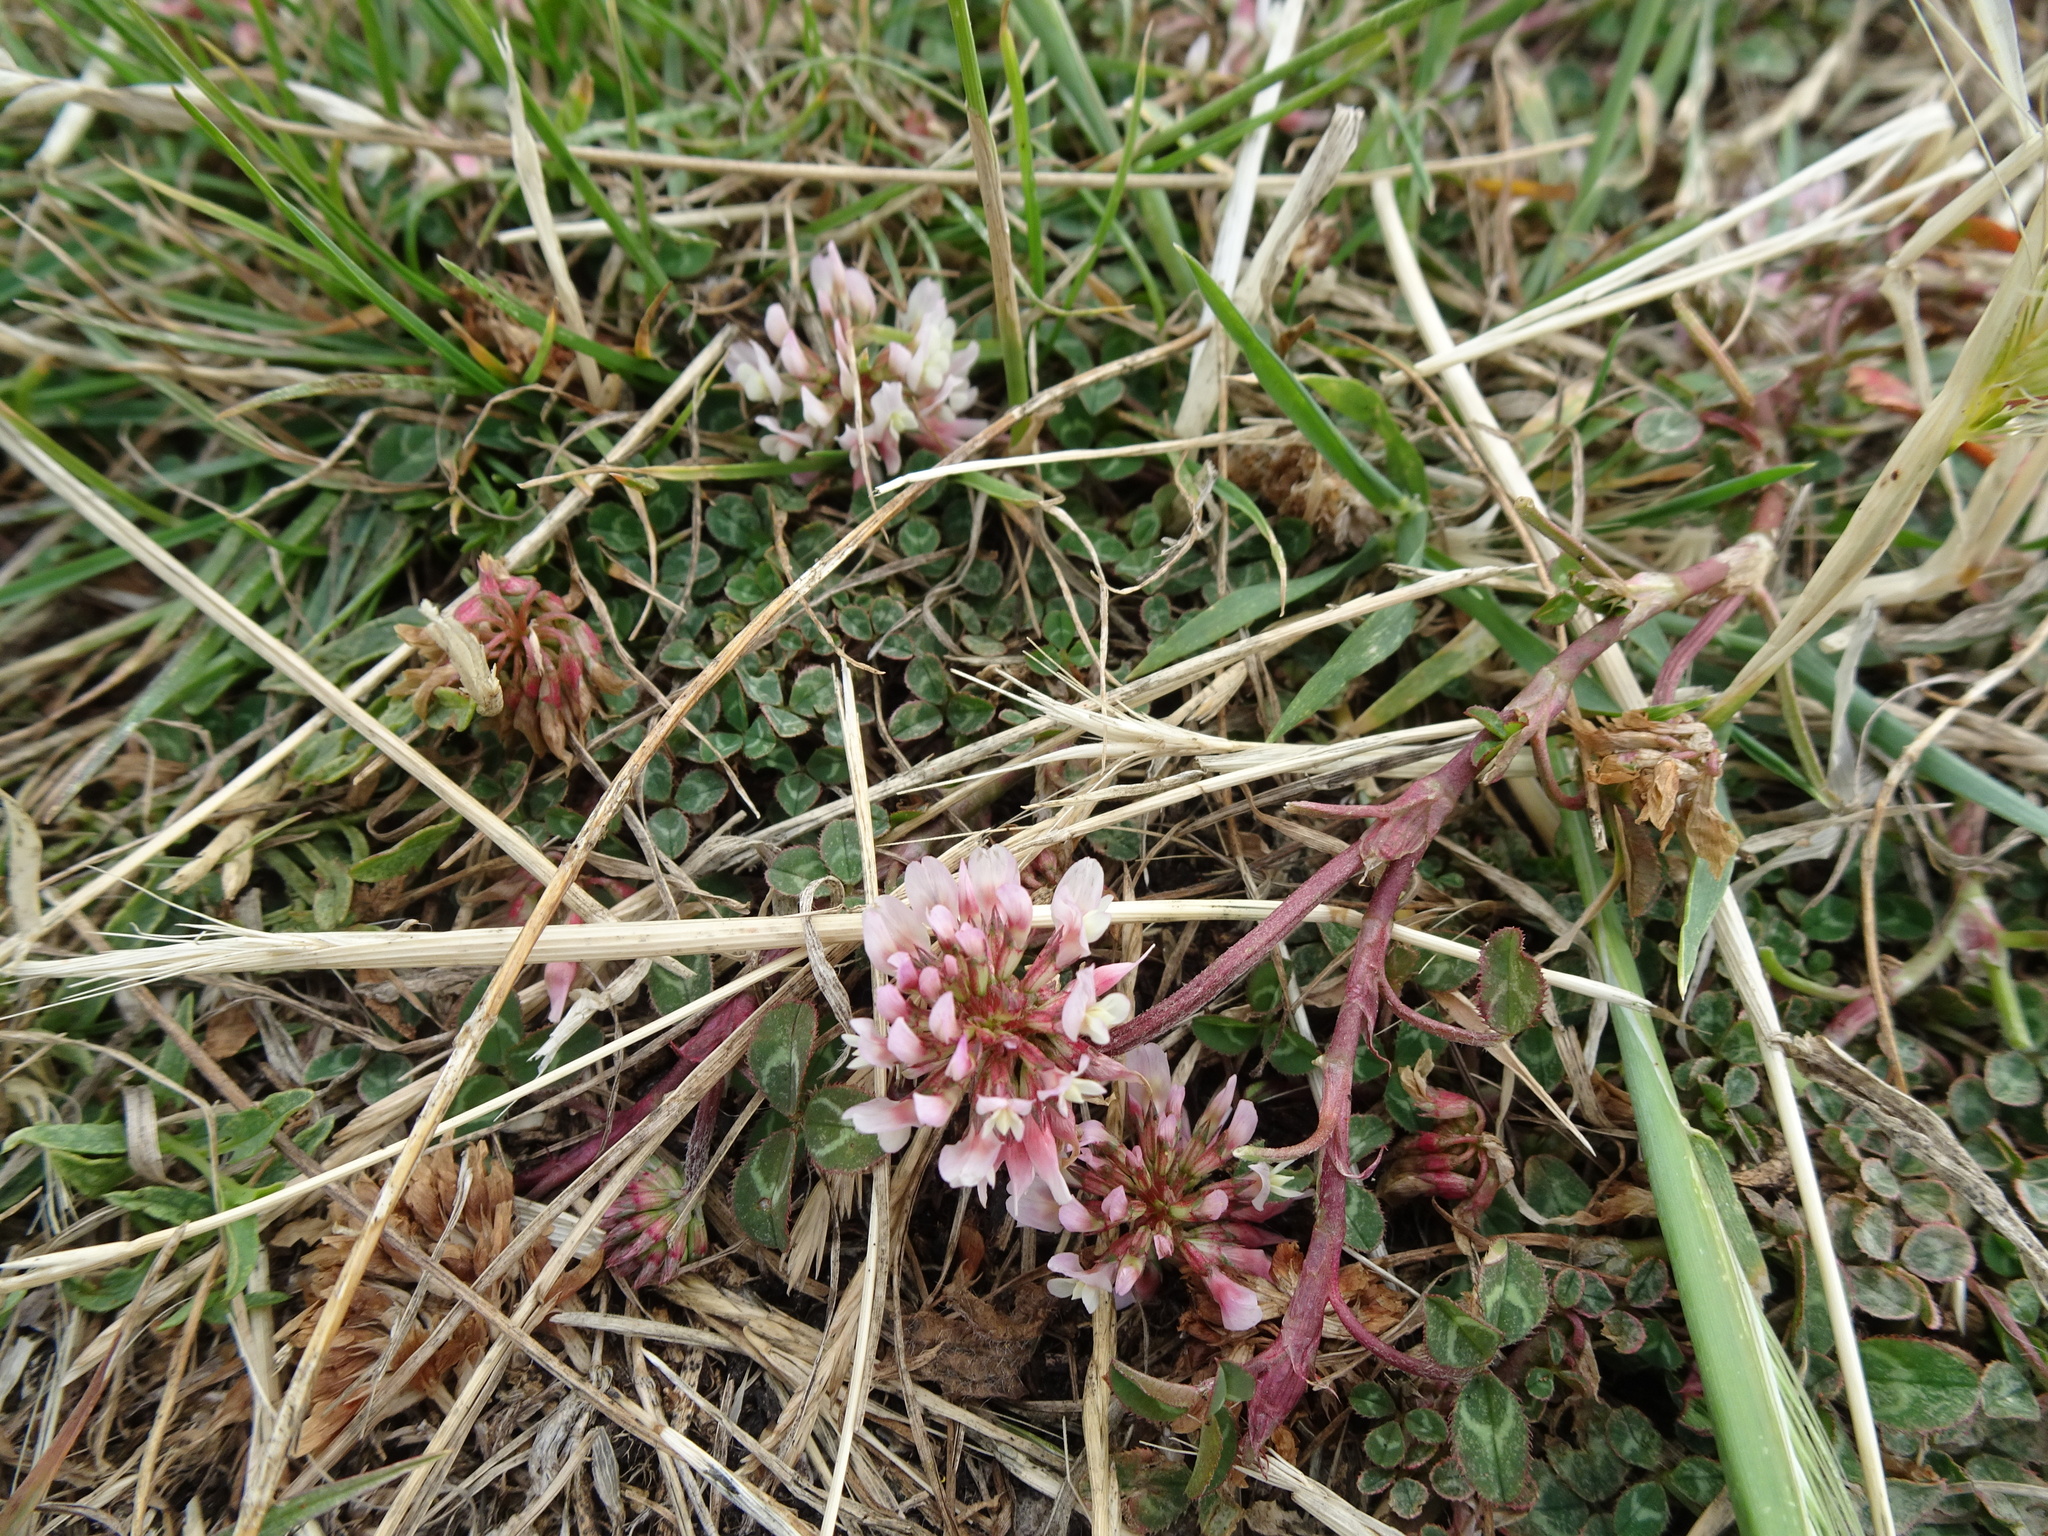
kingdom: Plantae
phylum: Tracheophyta
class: Magnoliopsida
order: Fabales
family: Fabaceae
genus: Trifolium
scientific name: Trifolium repens
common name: White clover
